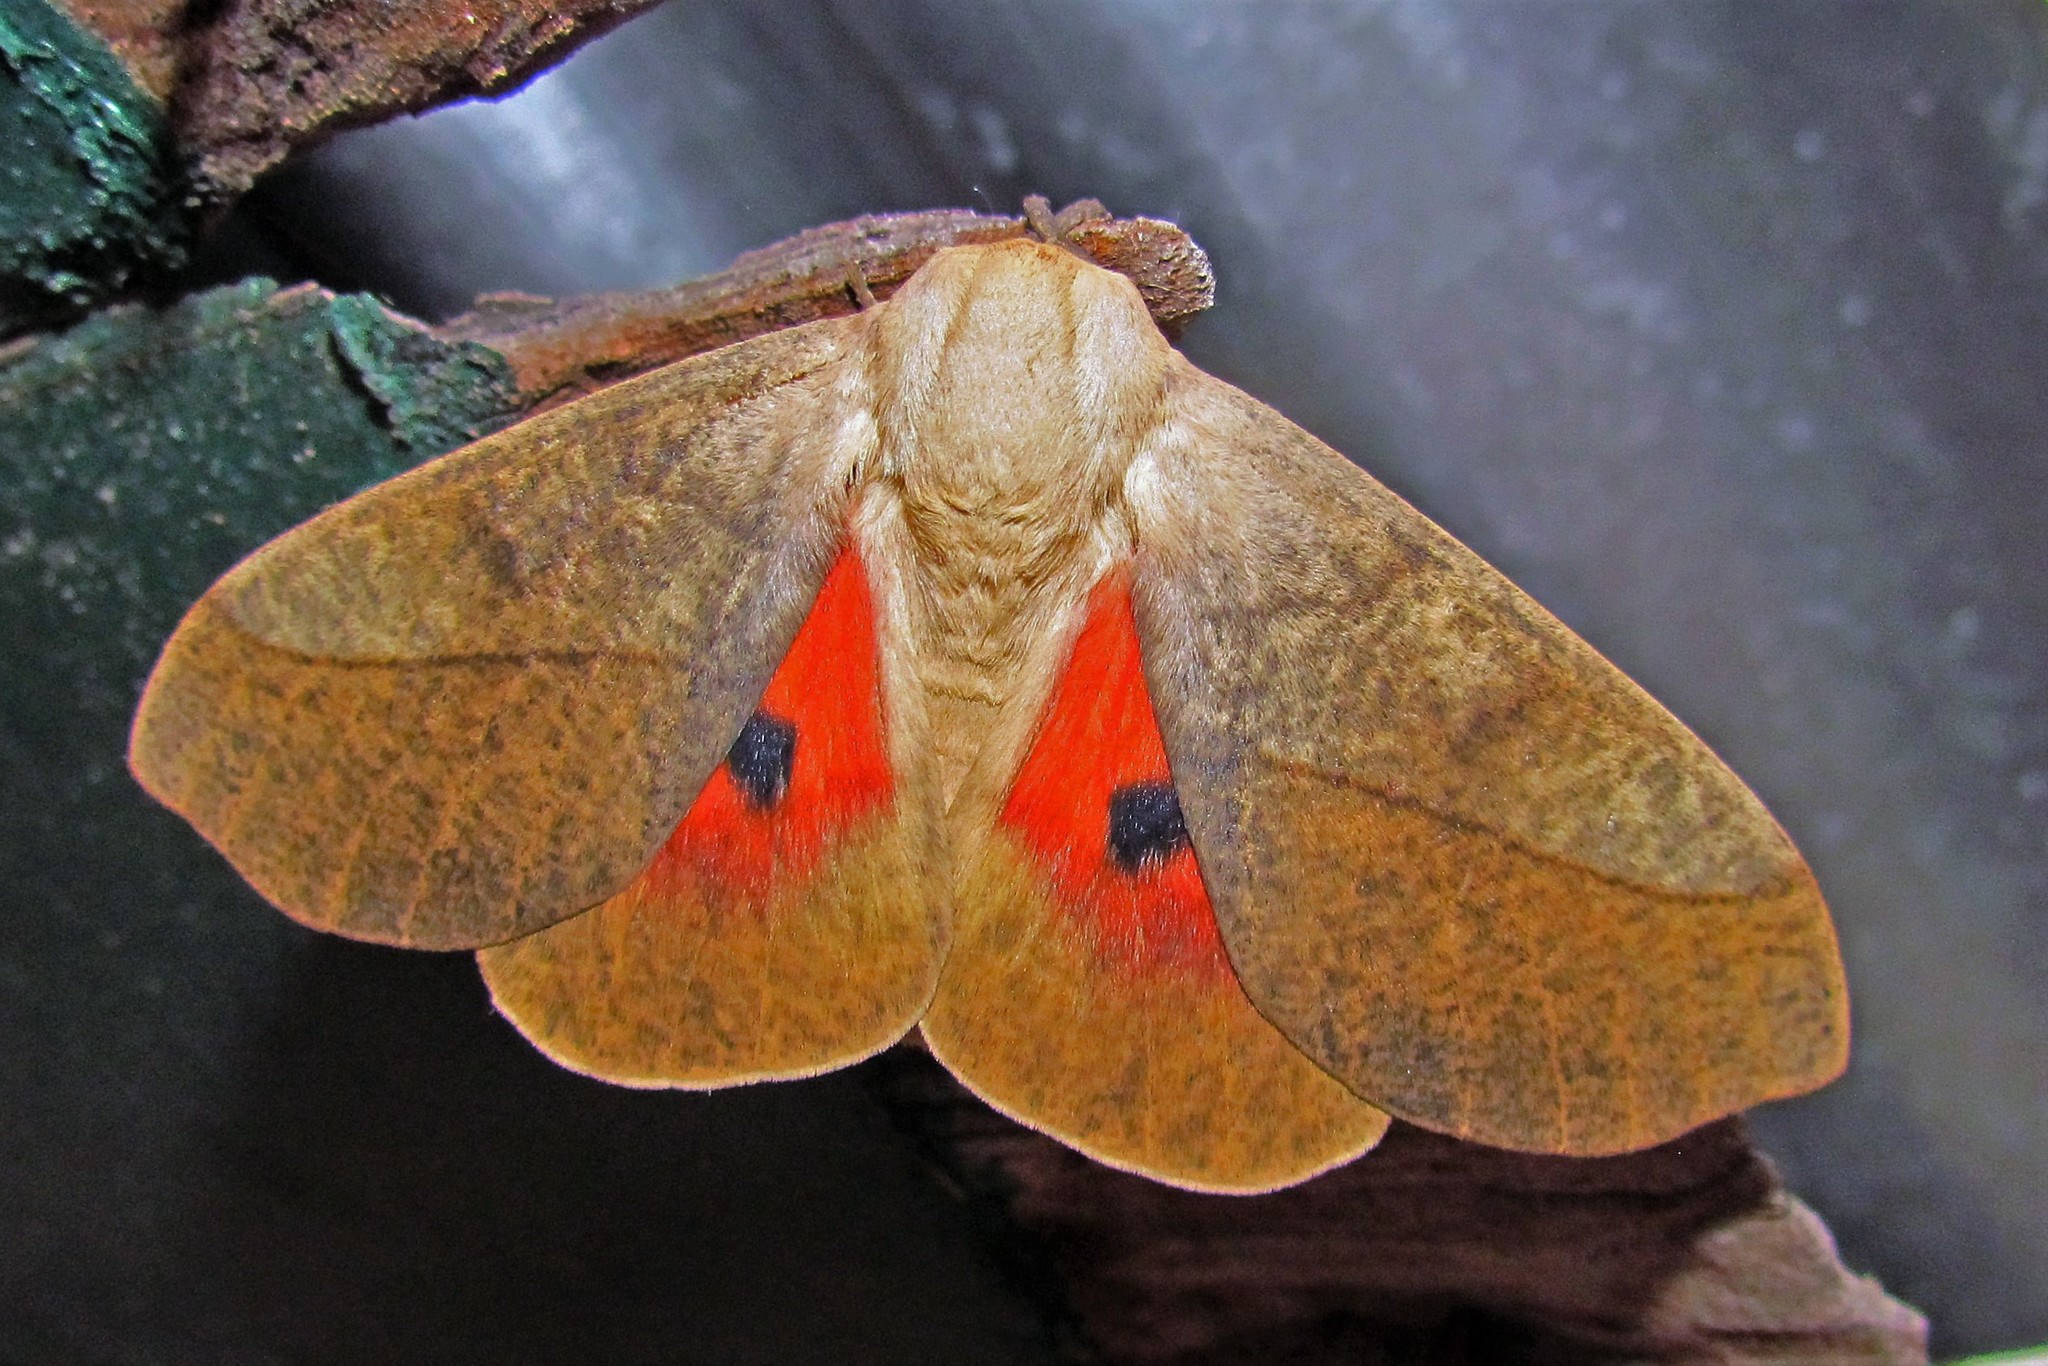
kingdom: Animalia
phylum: Arthropoda
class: Insecta
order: Lepidoptera
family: Saturniidae
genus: Syssphinx
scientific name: Syssphinx molina
